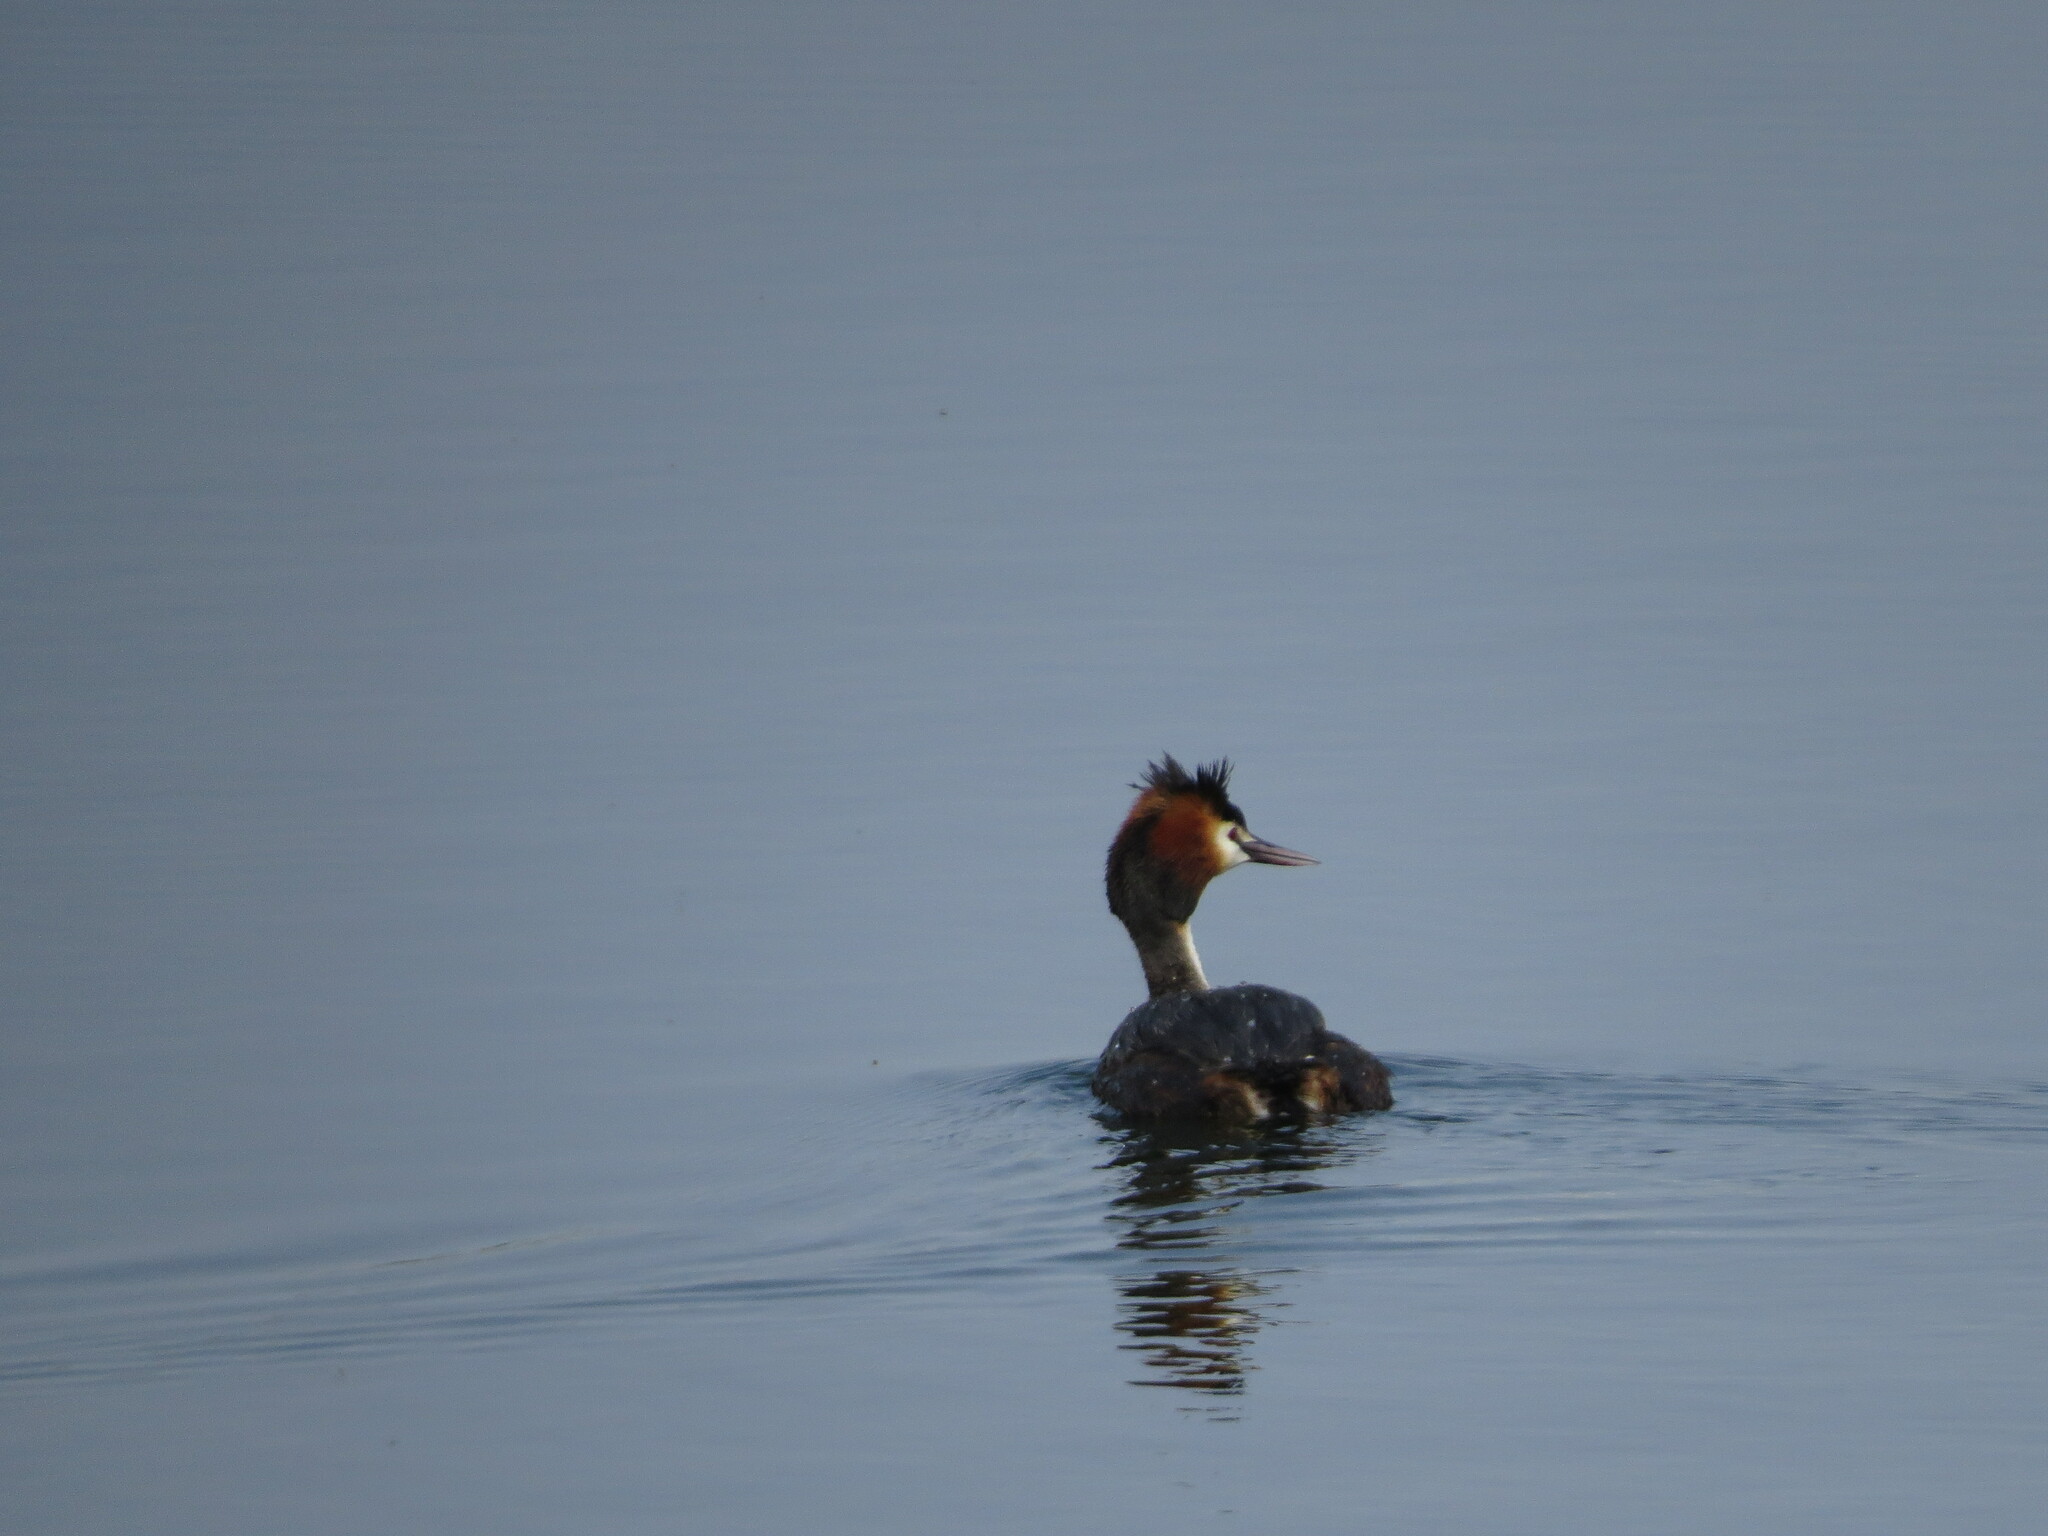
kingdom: Animalia
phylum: Chordata
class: Aves
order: Podicipediformes
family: Podicipedidae
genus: Podiceps
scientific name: Podiceps cristatus
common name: Great crested grebe
